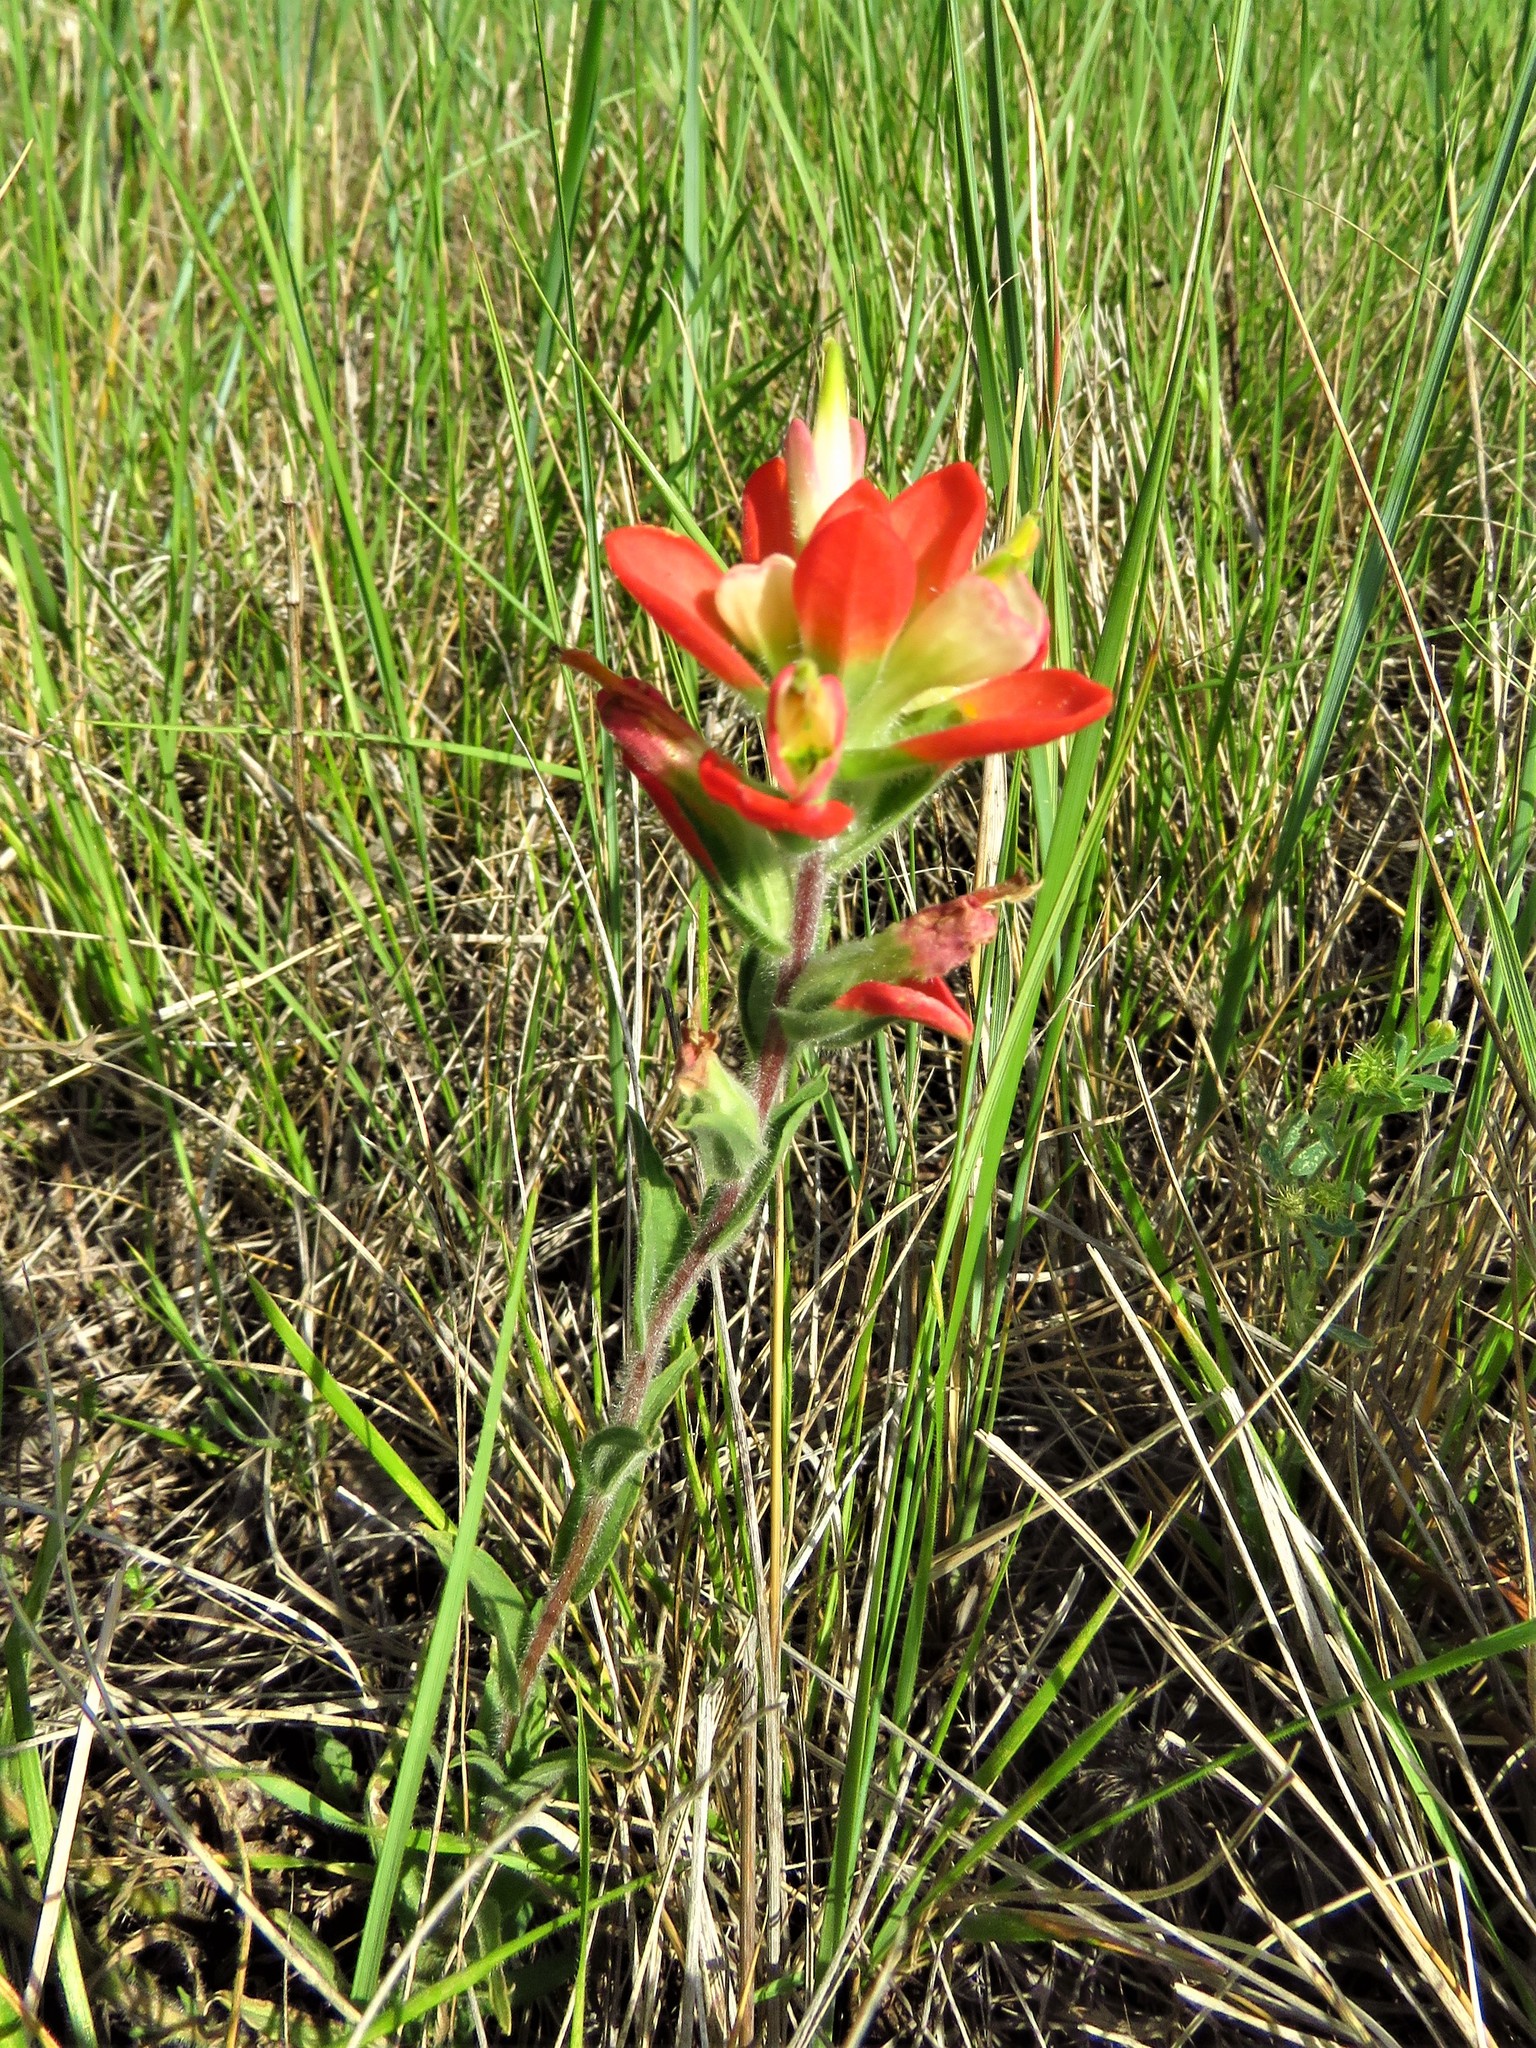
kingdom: Plantae
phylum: Tracheophyta
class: Magnoliopsida
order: Lamiales
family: Orobanchaceae
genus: Castilleja
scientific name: Castilleja indivisa
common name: Texas paintbrush
